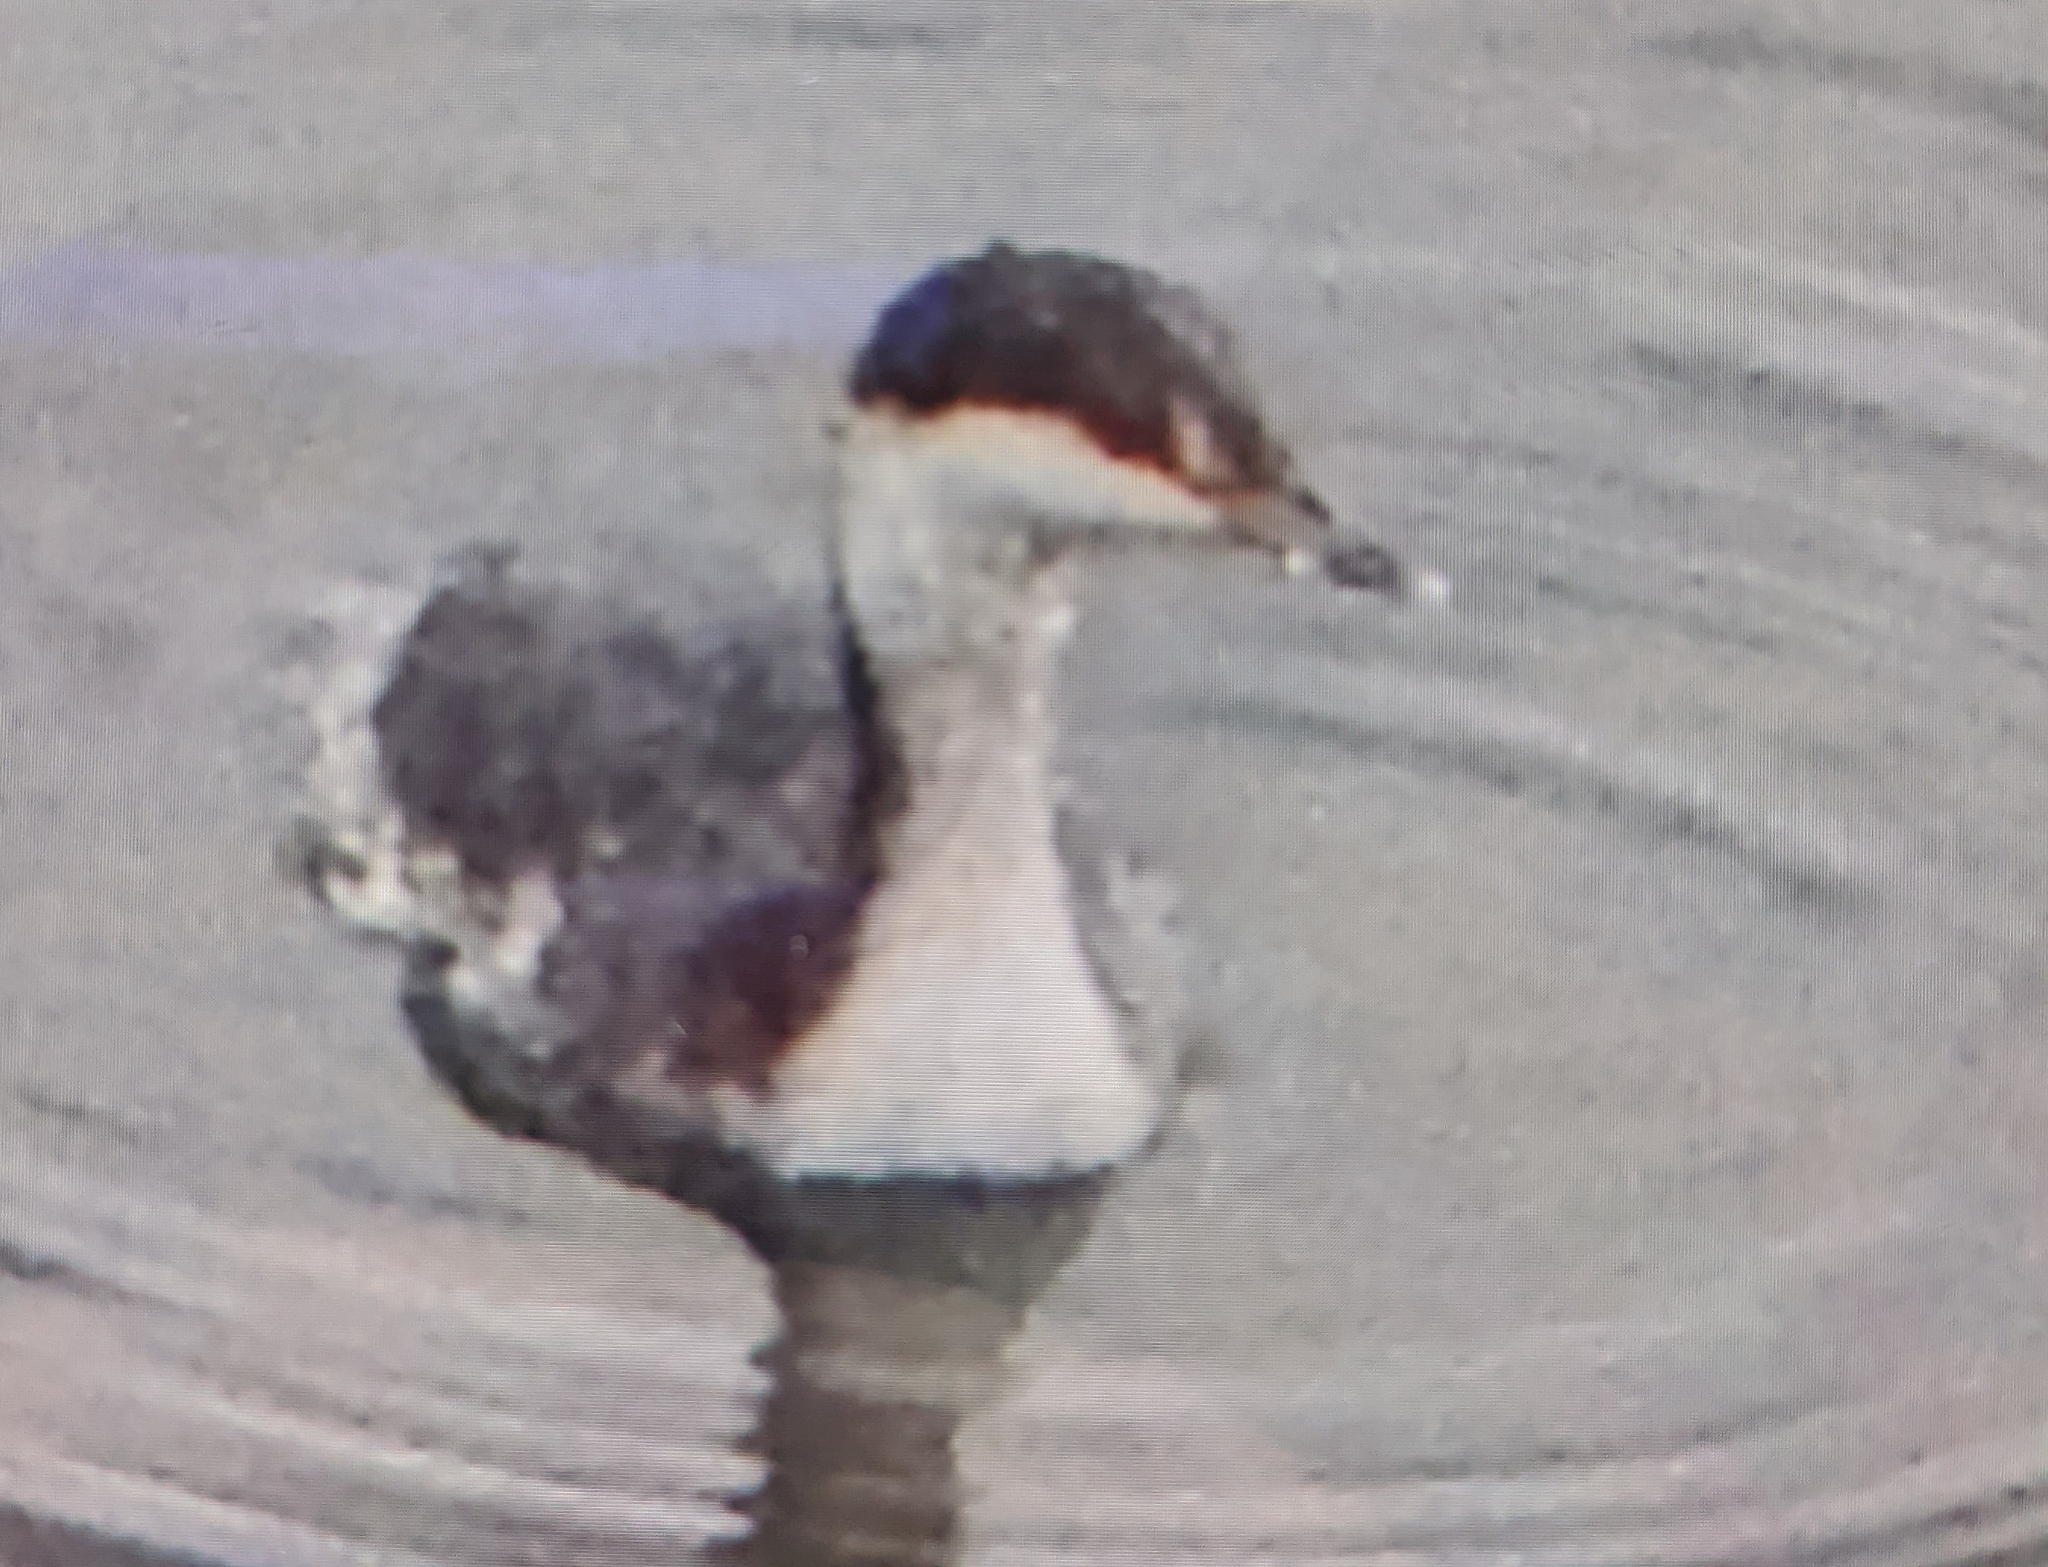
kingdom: Animalia
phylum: Chordata
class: Aves
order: Podicipediformes
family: Podicipedidae
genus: Podiceps
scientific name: Podiceps auritus
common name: Horned grebe
